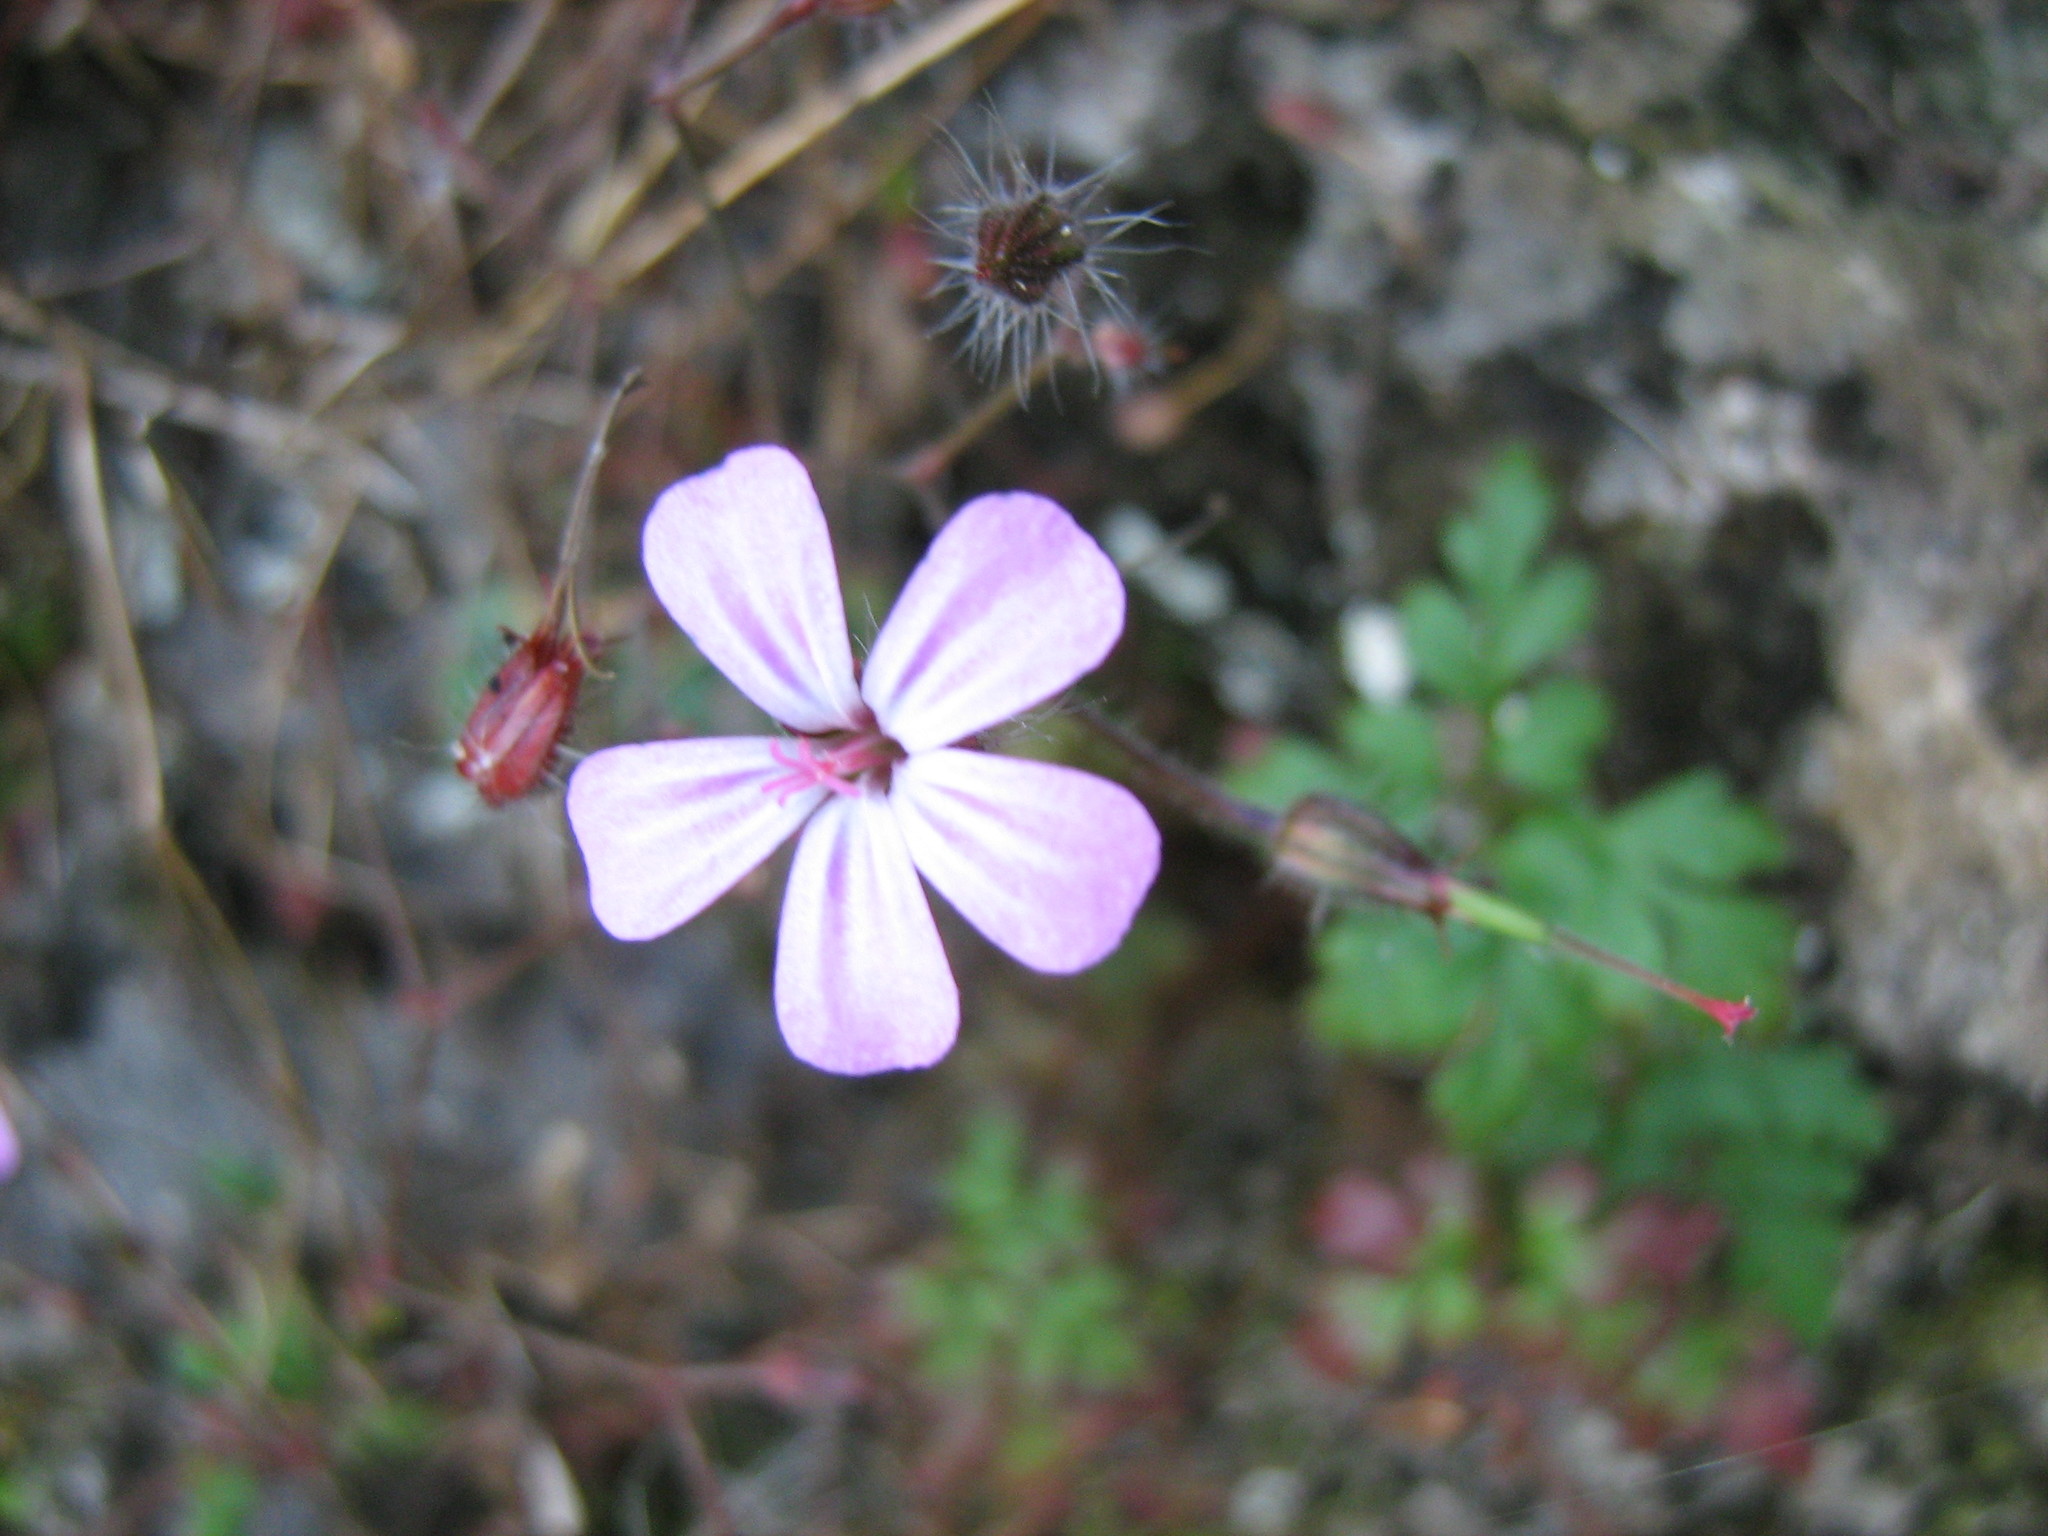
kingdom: Plantae
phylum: Tracheophyta
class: Magnoliopsida
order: Geraniales
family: Geraniaceae
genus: Geranium
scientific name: Geranium robertianum
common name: Herb-robert
